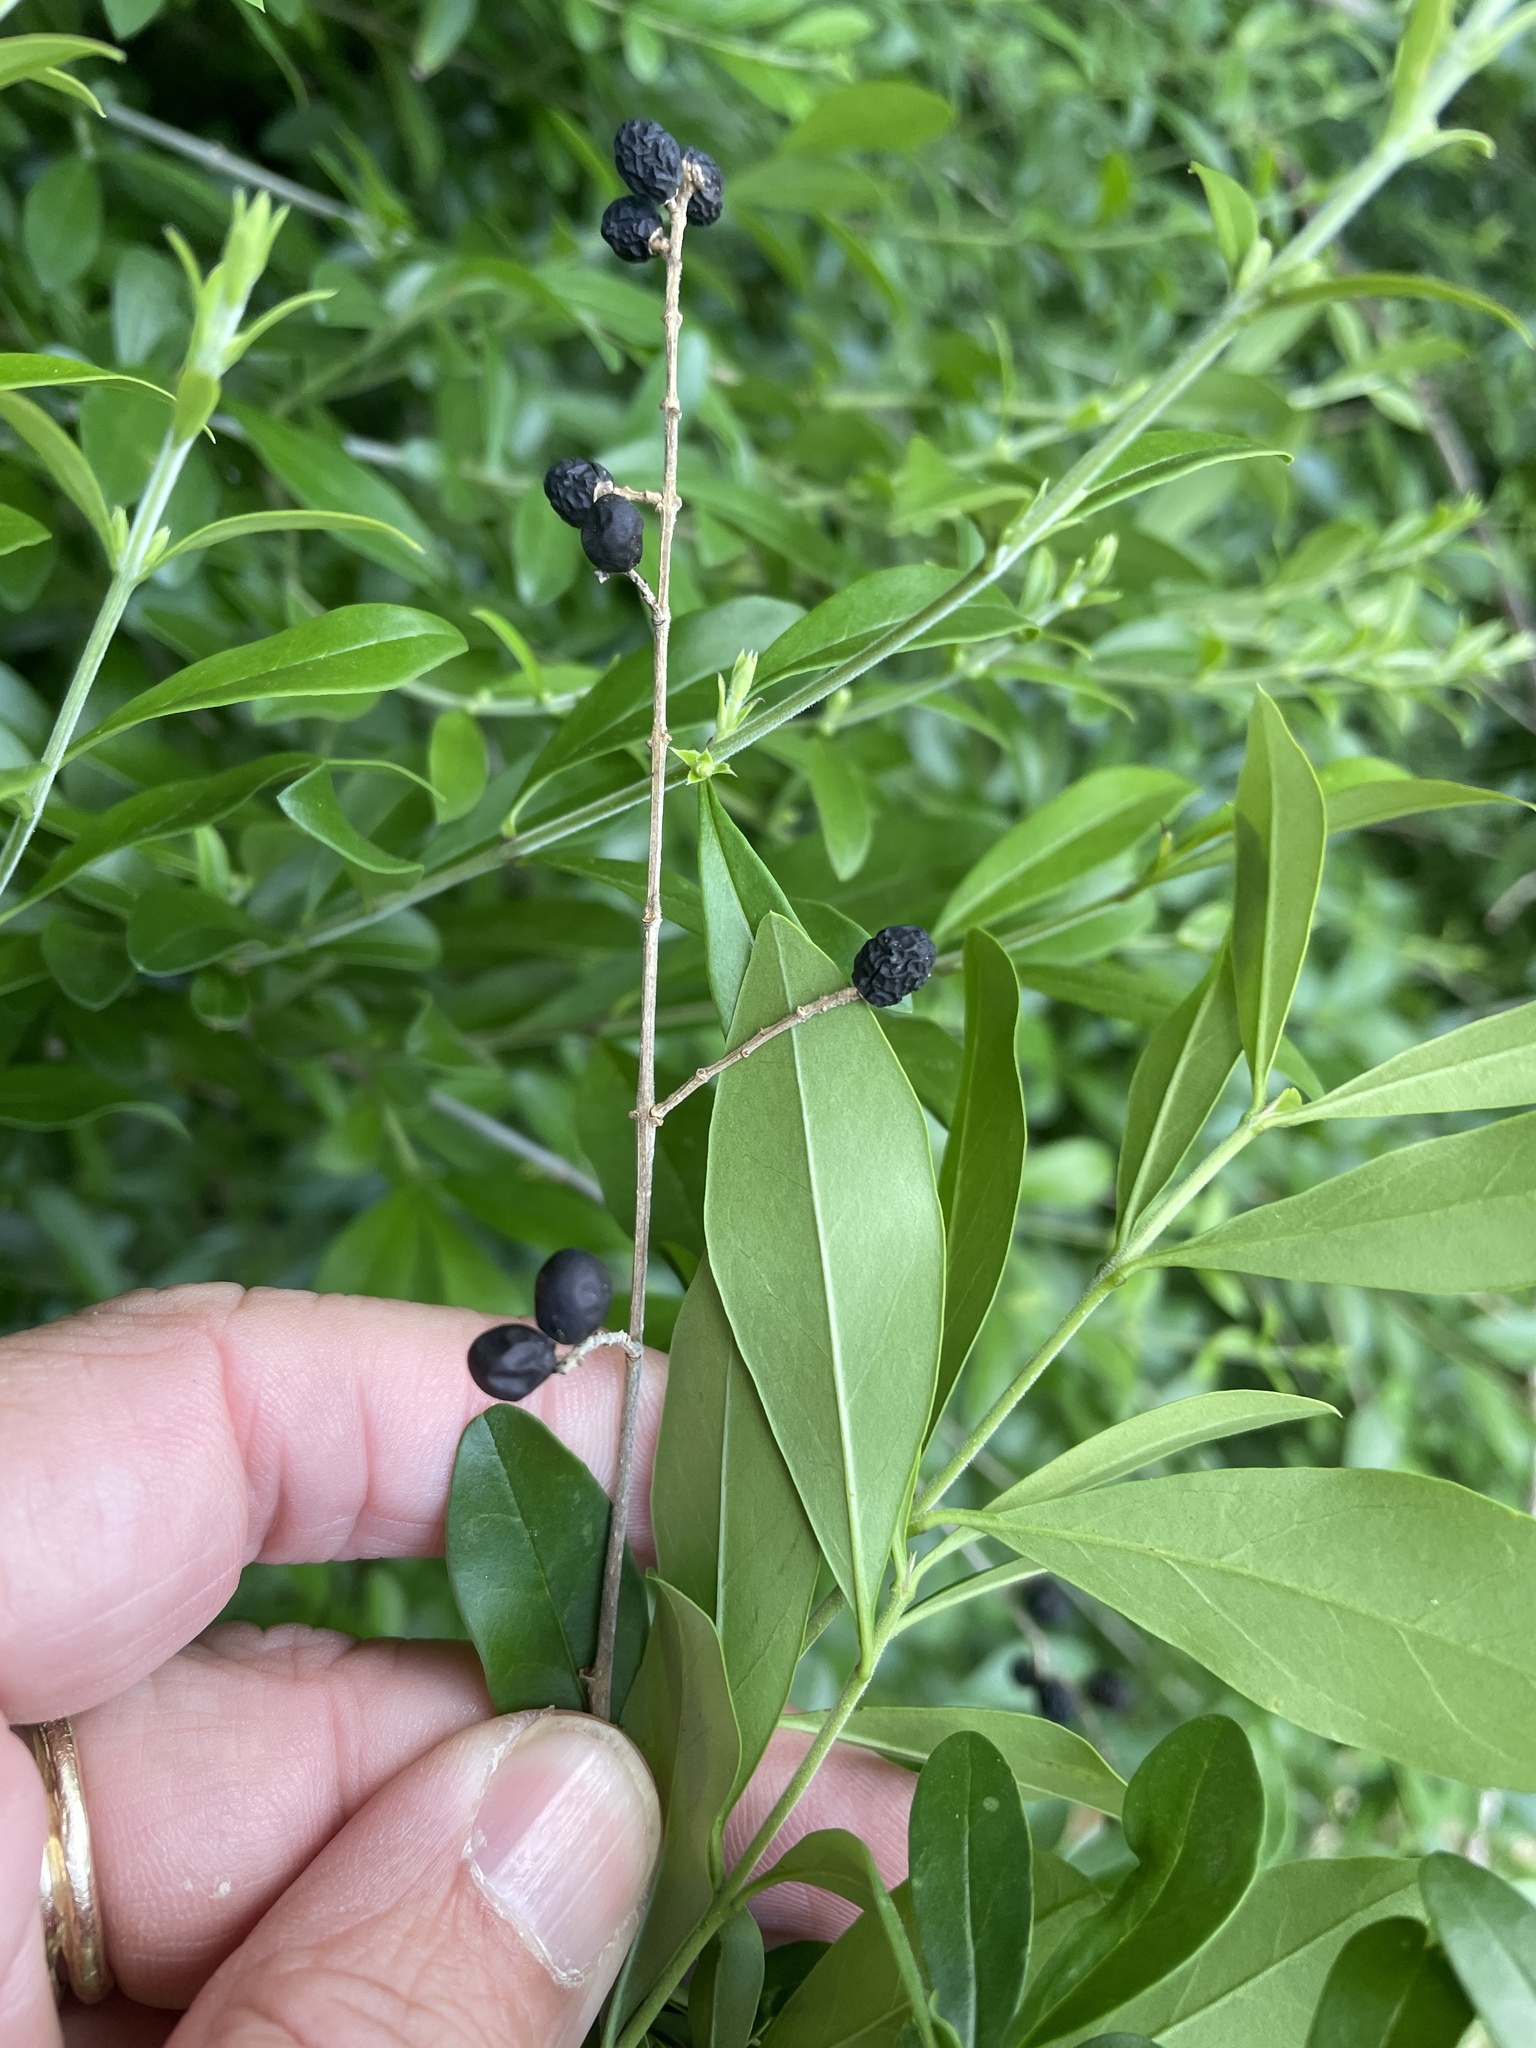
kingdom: Plantae
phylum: Tracheophyta
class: Magnoliopsida
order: Lamiales
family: Oleaceae
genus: Ligustrum
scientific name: Ligustrum quihoui
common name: Waxyleaf privet
